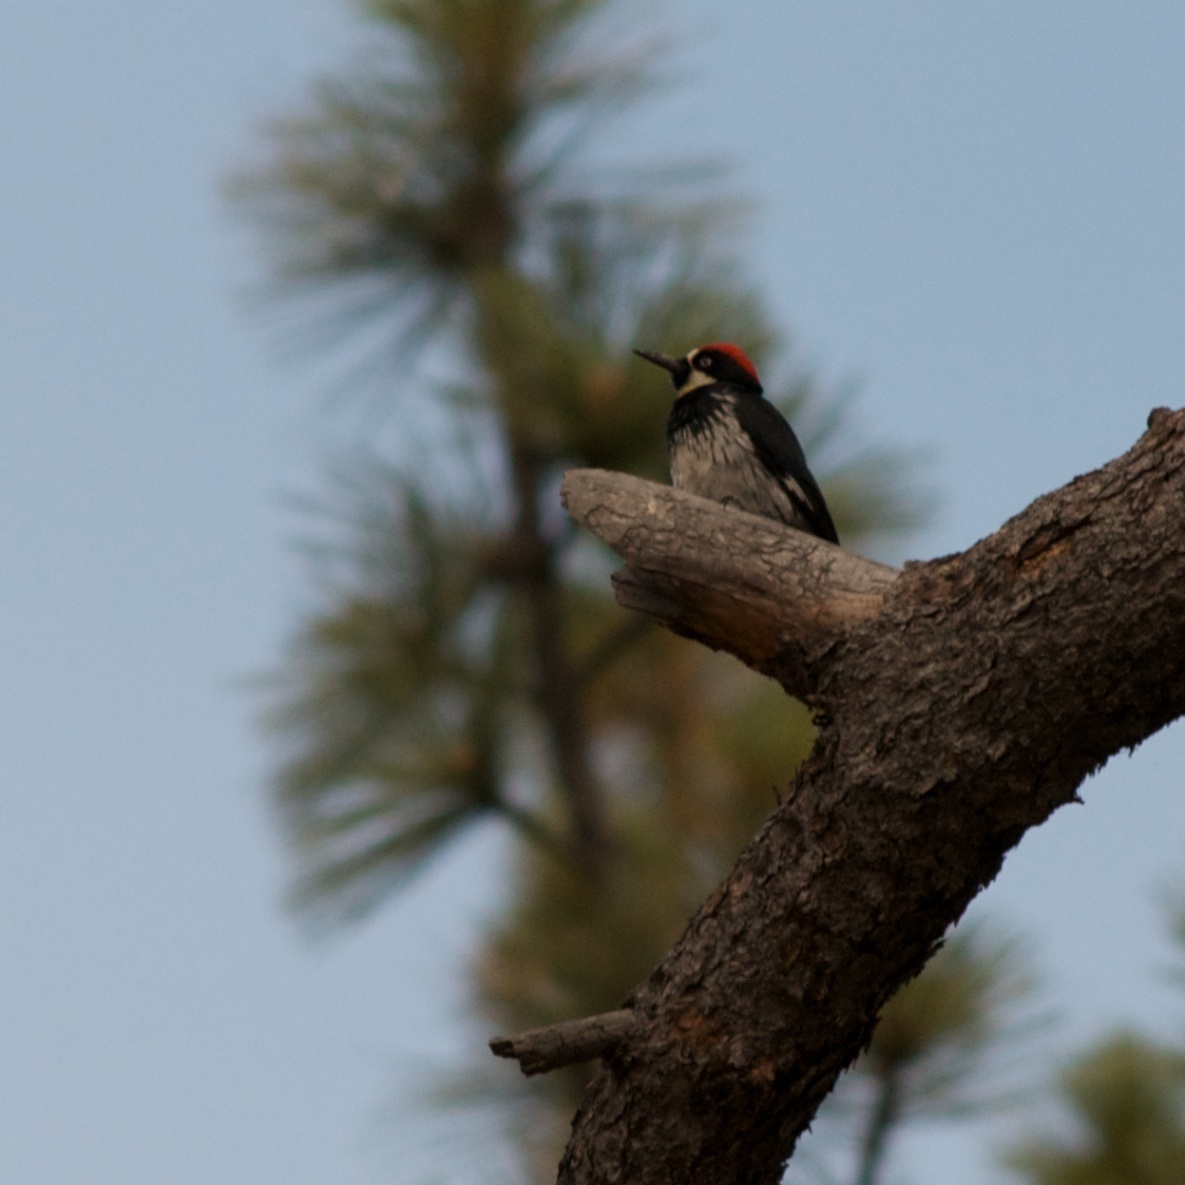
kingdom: Animalia
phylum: Chordata
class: Aves
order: Piciformes
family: Picidae
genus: Melanerpes
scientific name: Melanerpes formicivorus
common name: Acorn woodpecker
